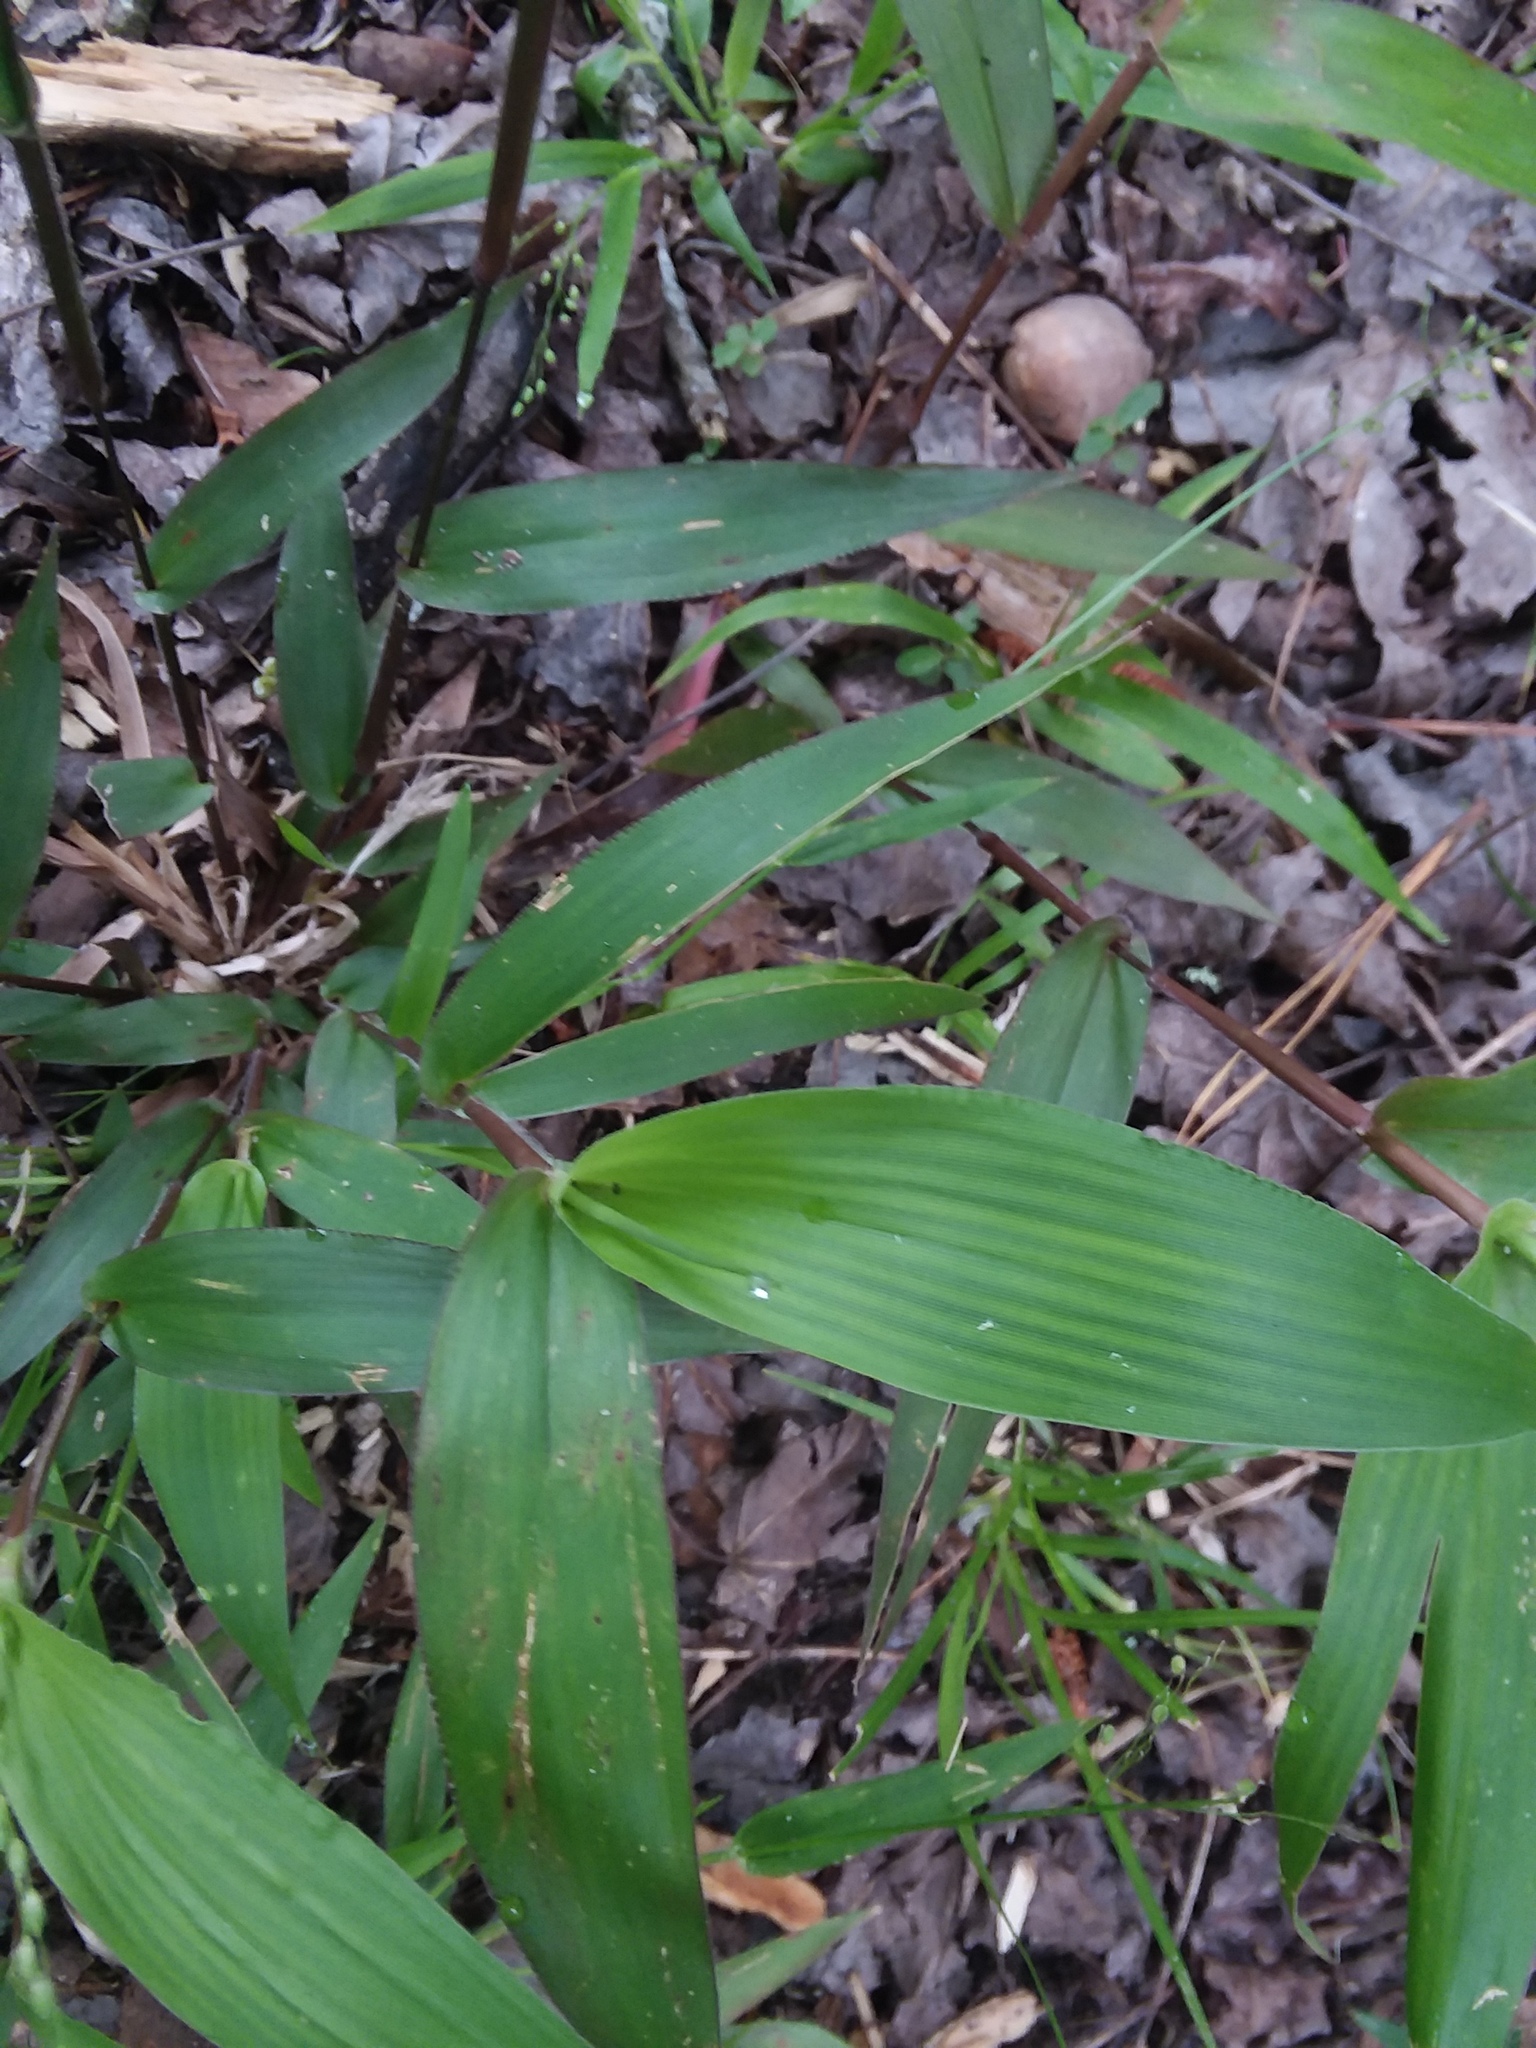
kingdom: Plantae
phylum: Tracheophyta
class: Liliopsida
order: Poales
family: Poaceae
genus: Dichanthelium
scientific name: Dichanthelium commutatum
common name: Variable witchgrass
